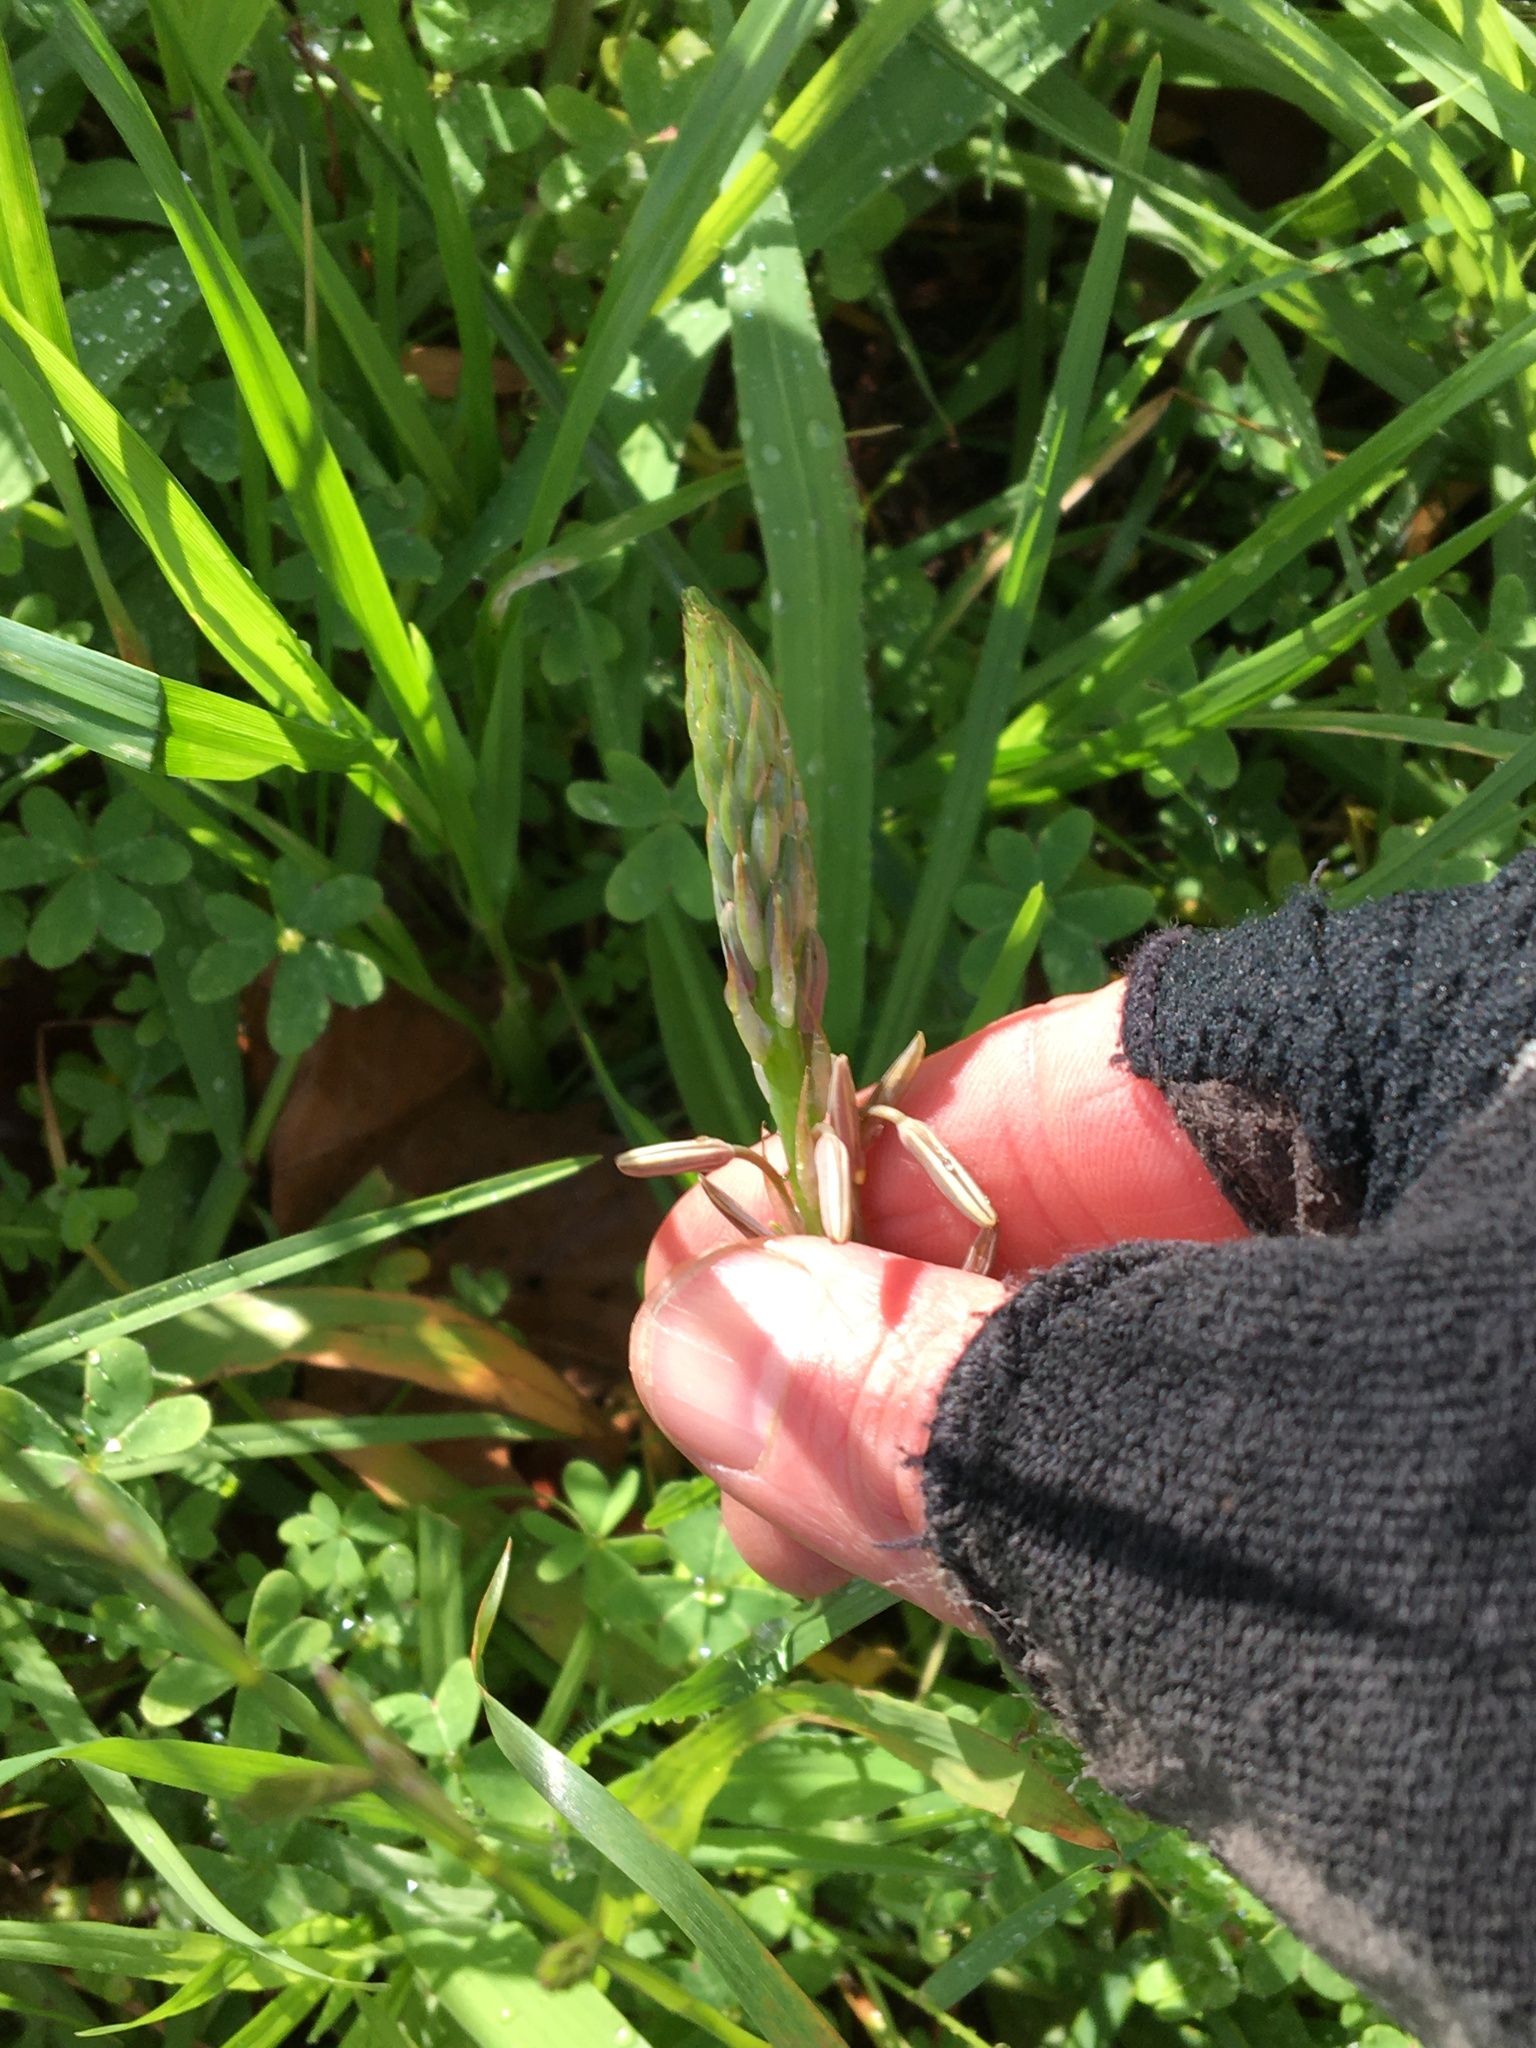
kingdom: Plantae
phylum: Tracheophyta
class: Liliopsida
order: Asparagales
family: Asphodelaceae
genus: Trachyandra
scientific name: Trachyandra ciliata
